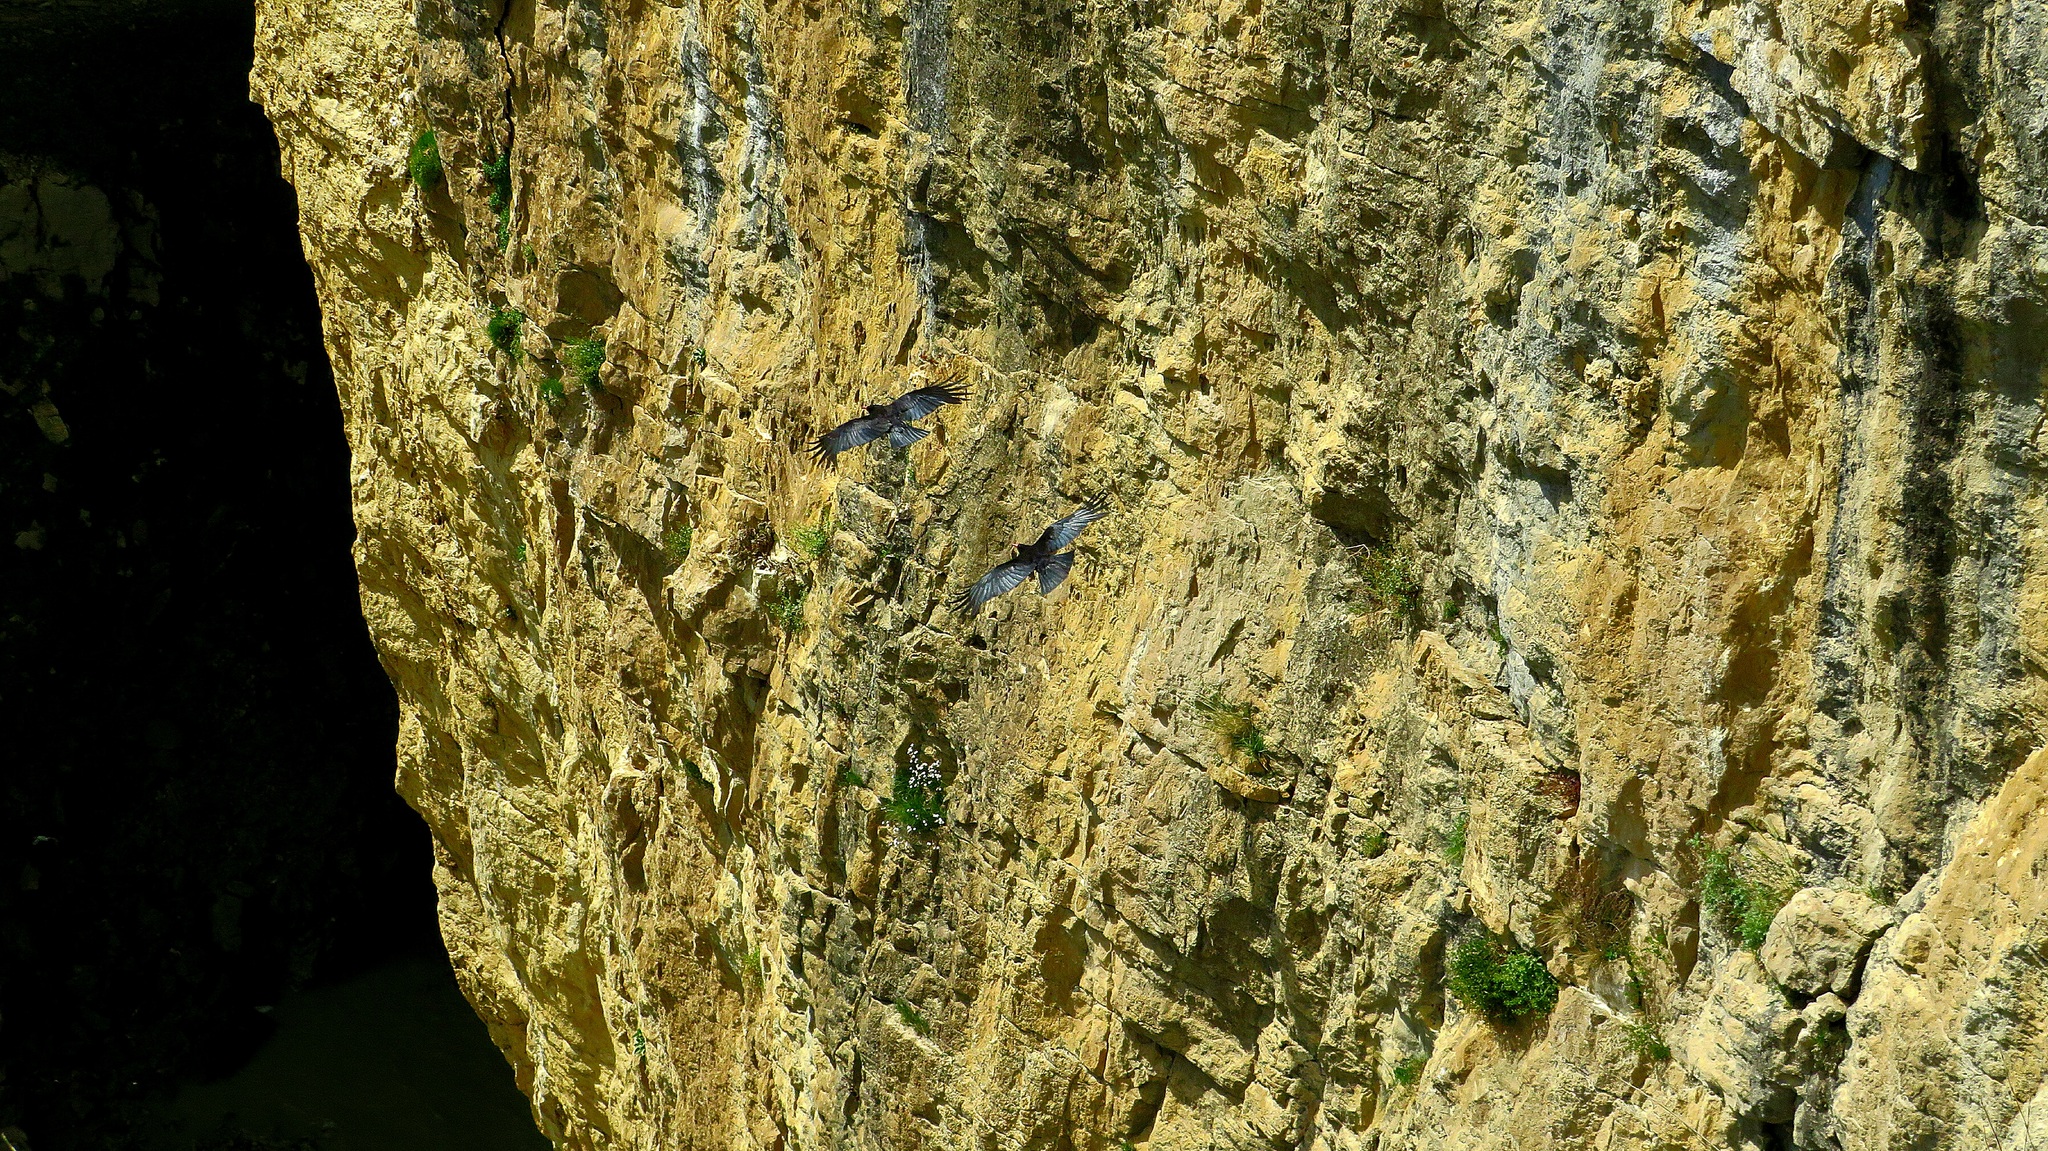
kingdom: Animalia
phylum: Chordata
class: Aves
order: Passeriformes
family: Corvidae
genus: Pyrrhocorax
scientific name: Pyrrhocorax pyrrhocorax
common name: Red-billed chough
